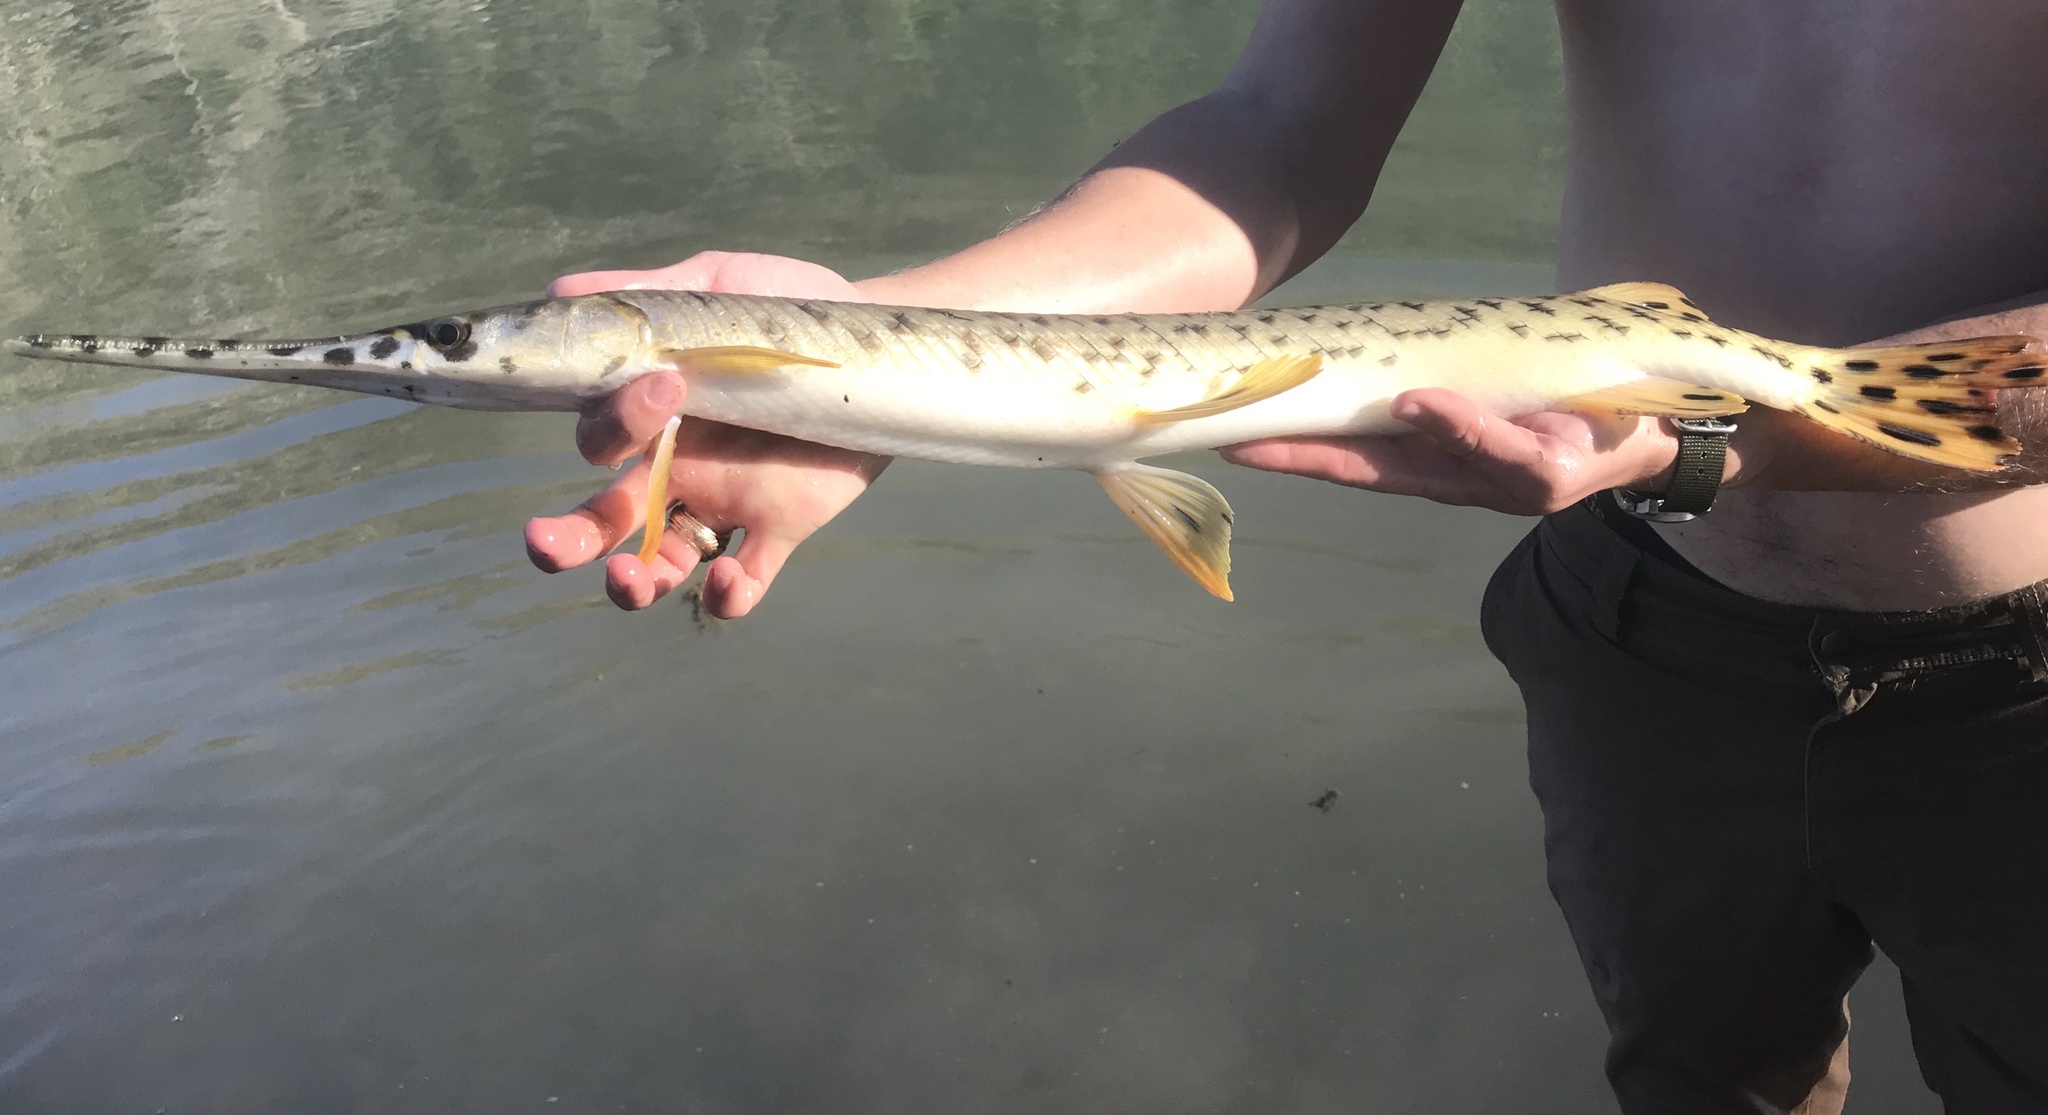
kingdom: Animalia
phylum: Chordata
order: Lepisosteiformes
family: Lepisosteidae
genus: Lepisosteus
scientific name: Lepisosteus osseus
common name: Longnose gar
